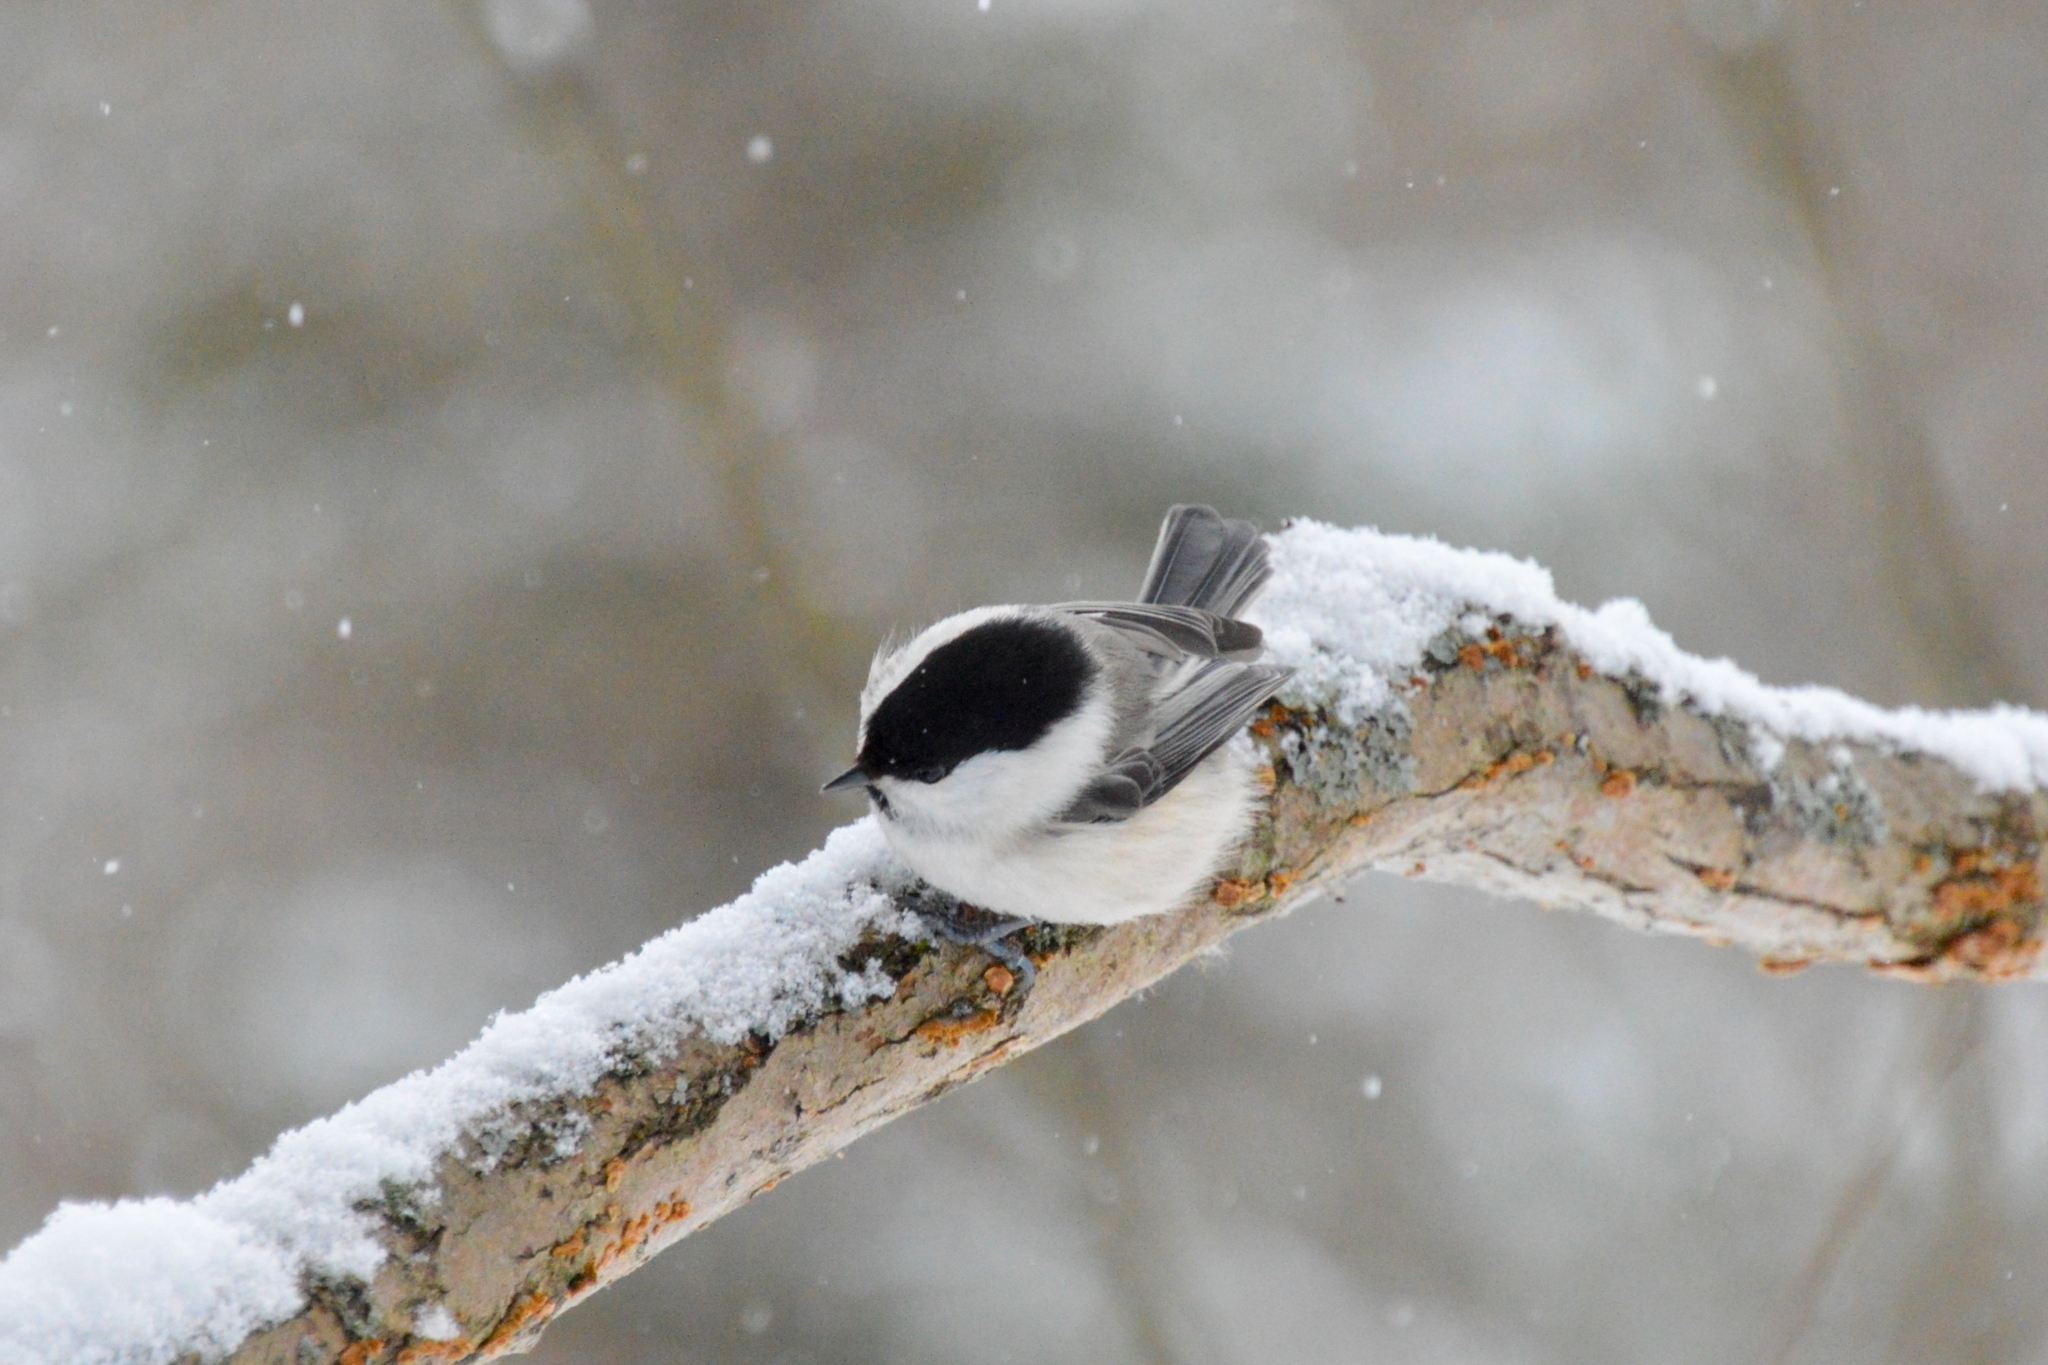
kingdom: Animalia
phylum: Chordata
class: Aves
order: Passeriformes
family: Paridae
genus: Poecile
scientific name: Poecile montanus
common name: Willow tit
